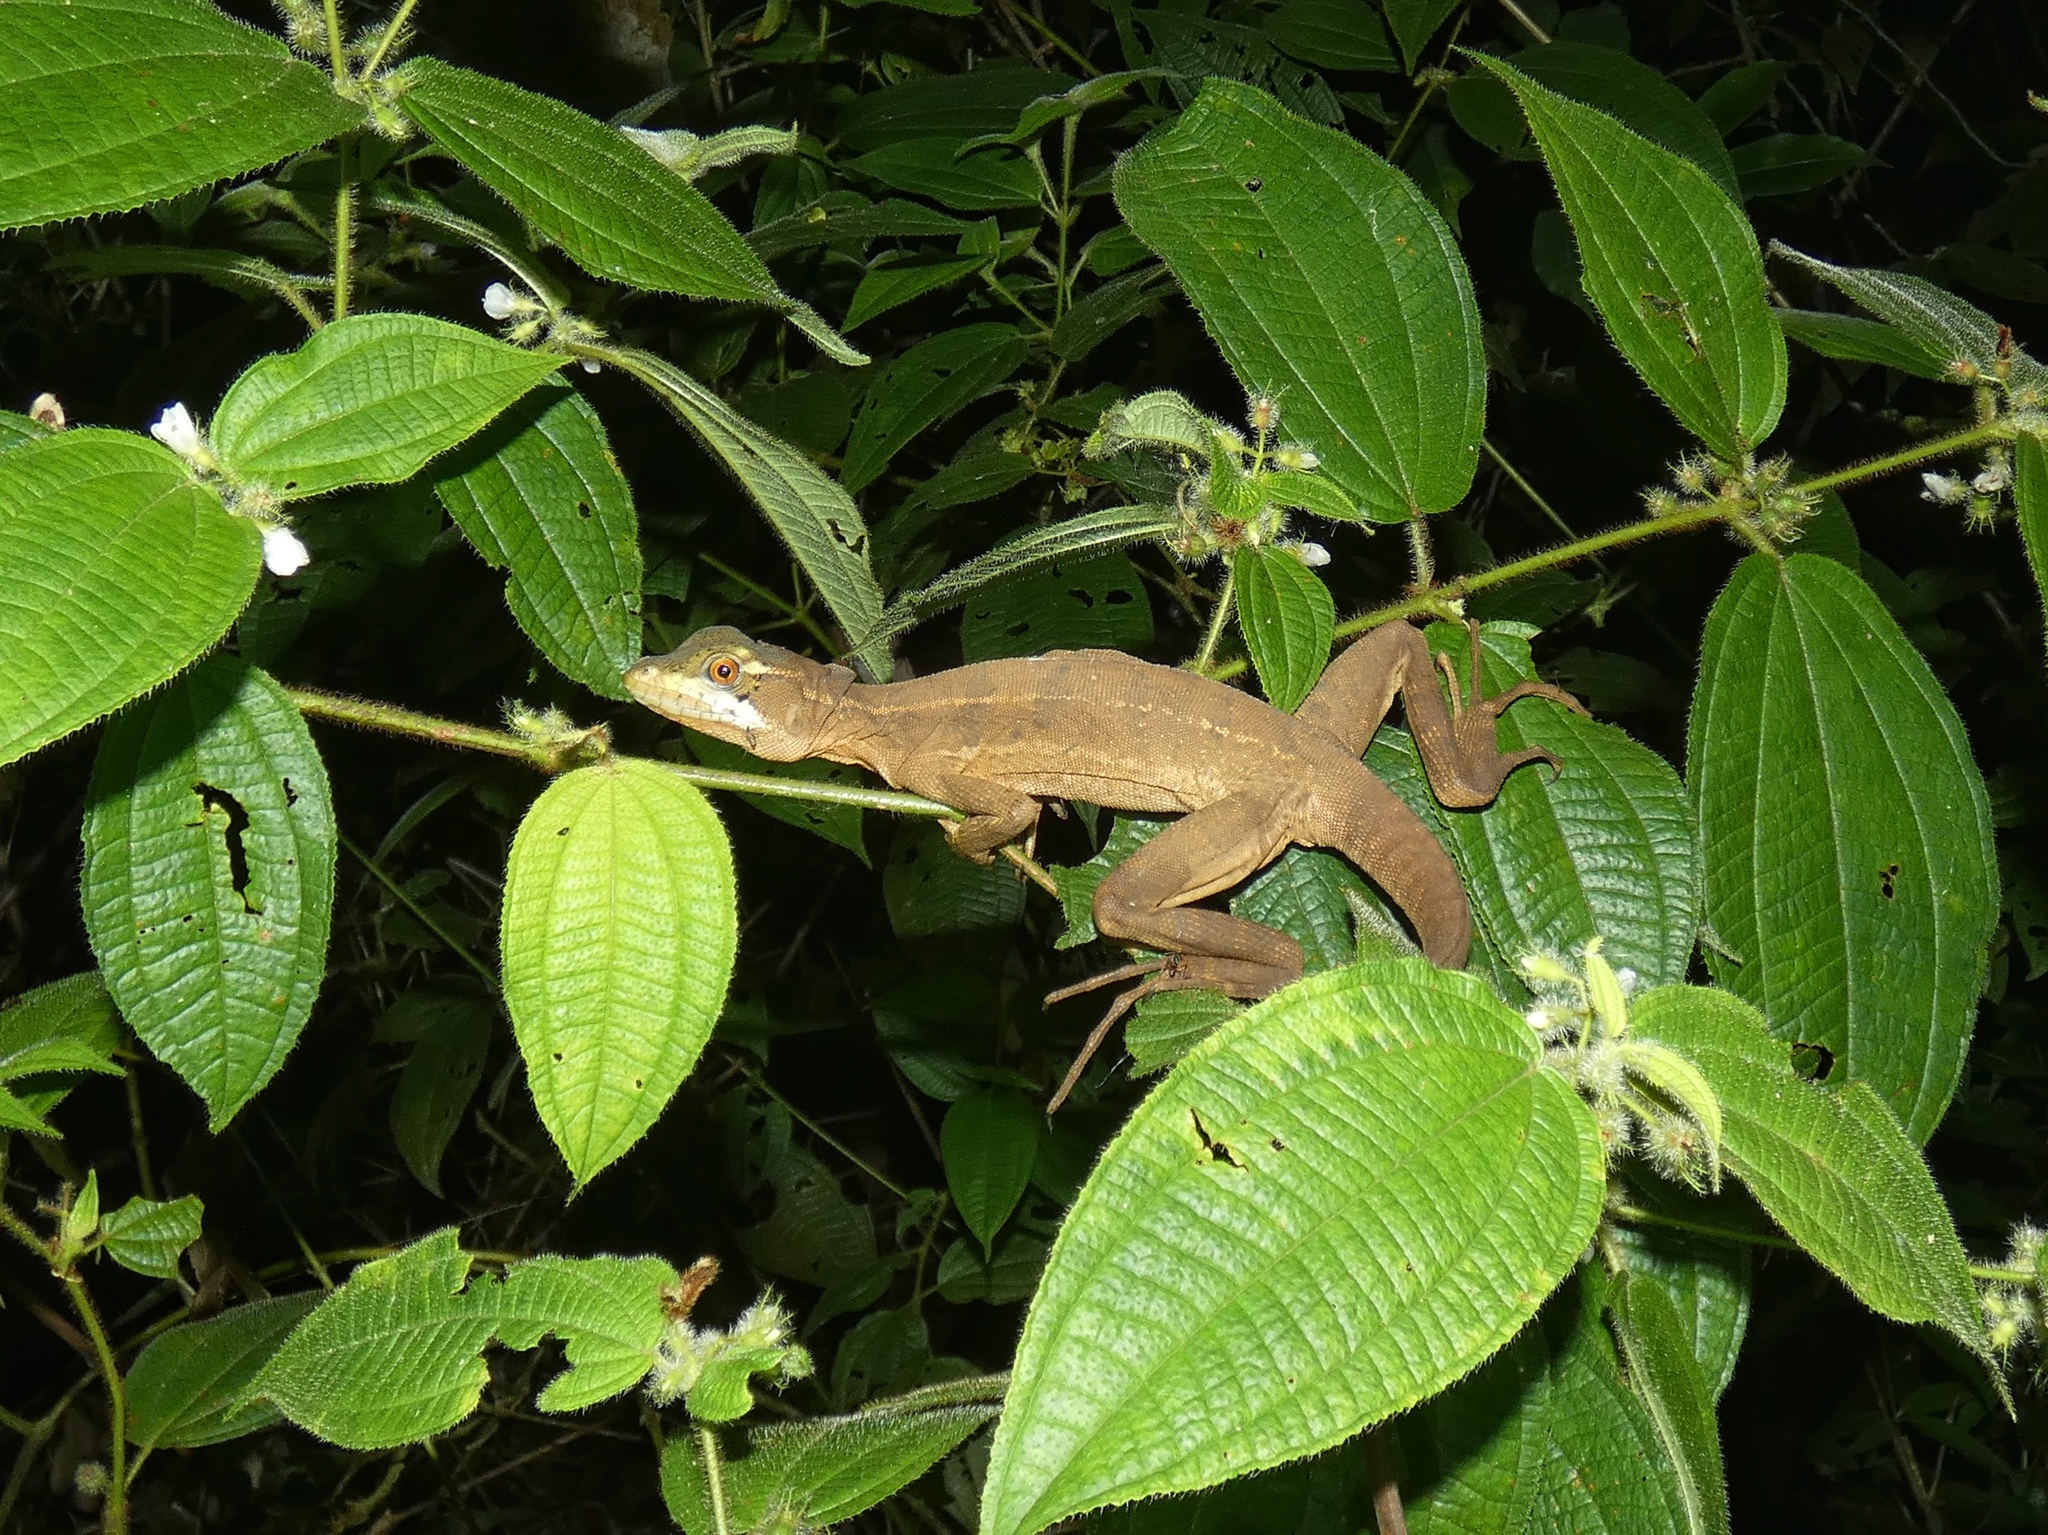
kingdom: Animalia
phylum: Chordata
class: Squamata
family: Corytophanidae
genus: Basiliscus
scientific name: Basiliscus basiliscus
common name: Common basilisk
